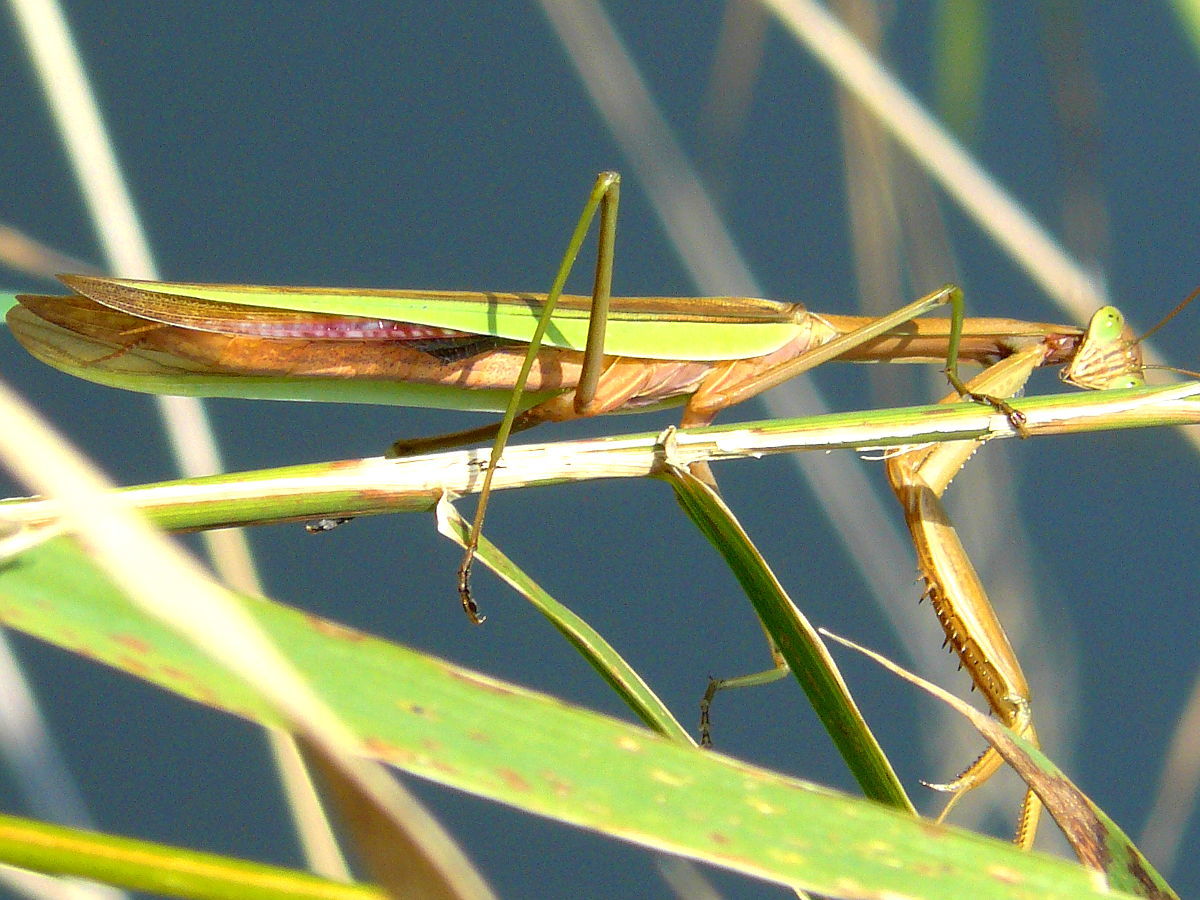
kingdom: Animalia
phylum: Arthropoda
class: Insecta
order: Mantodea
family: Mantidae
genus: Tenodera
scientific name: Tenodera sinensis
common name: Chinese mantis
